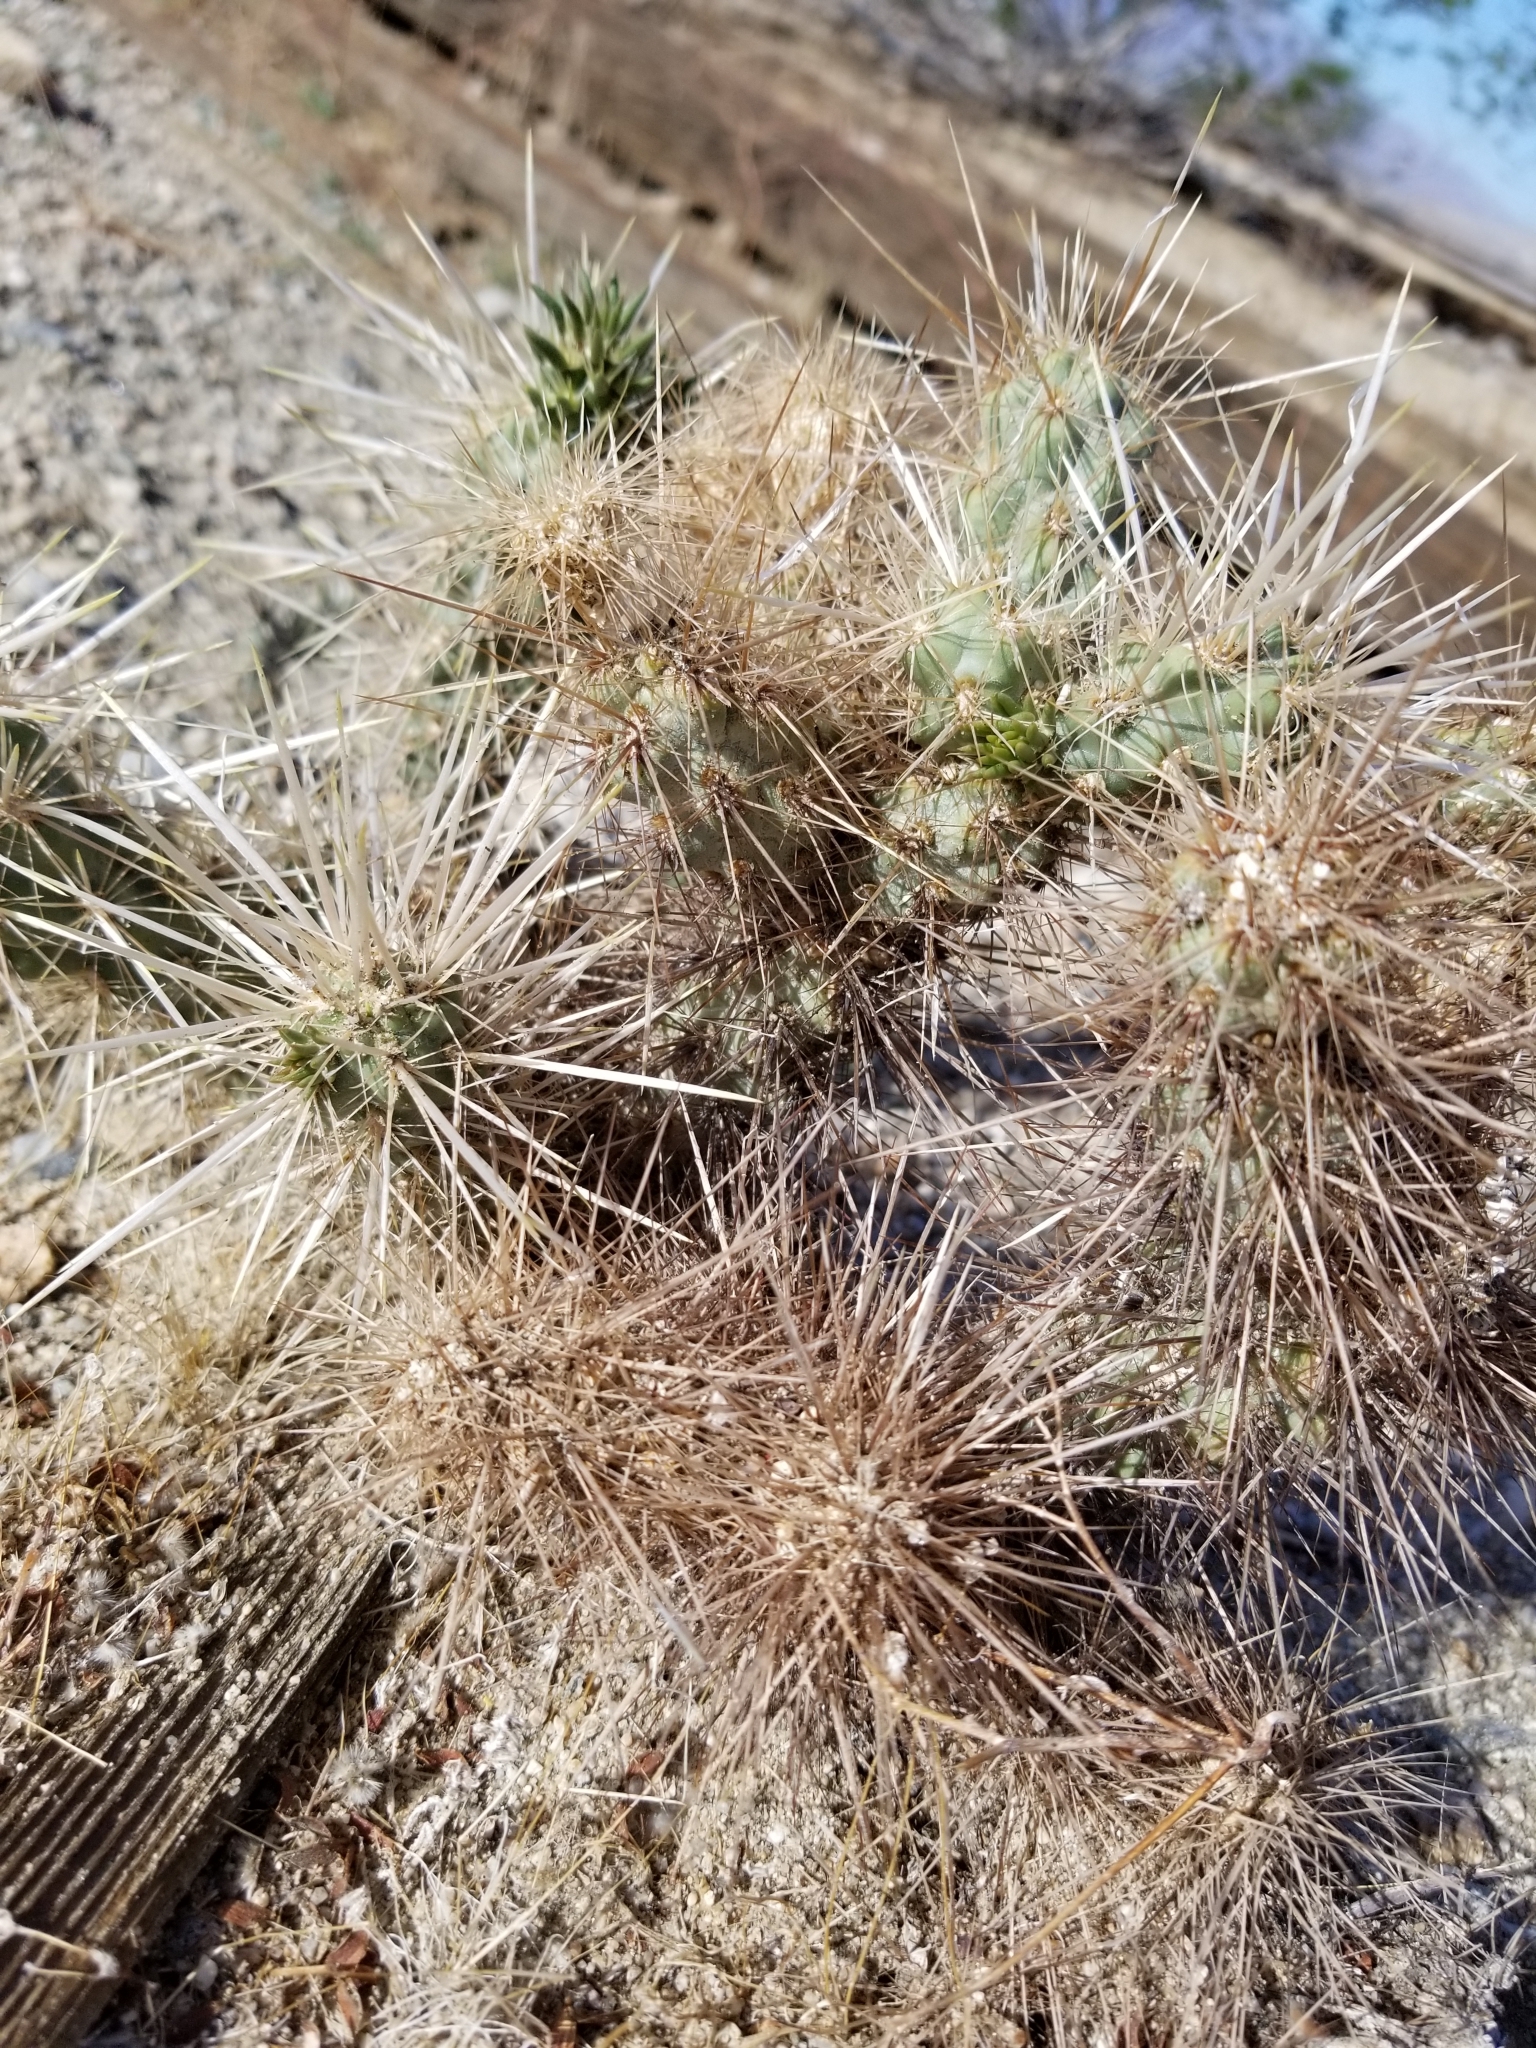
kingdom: Plantae
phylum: Tracheophyta
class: Magnoliopsida
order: Caryophyllales
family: Cactaceae
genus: Cylindropuntia
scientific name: Cylindropuntia echinocarpa
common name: Ground cholla
